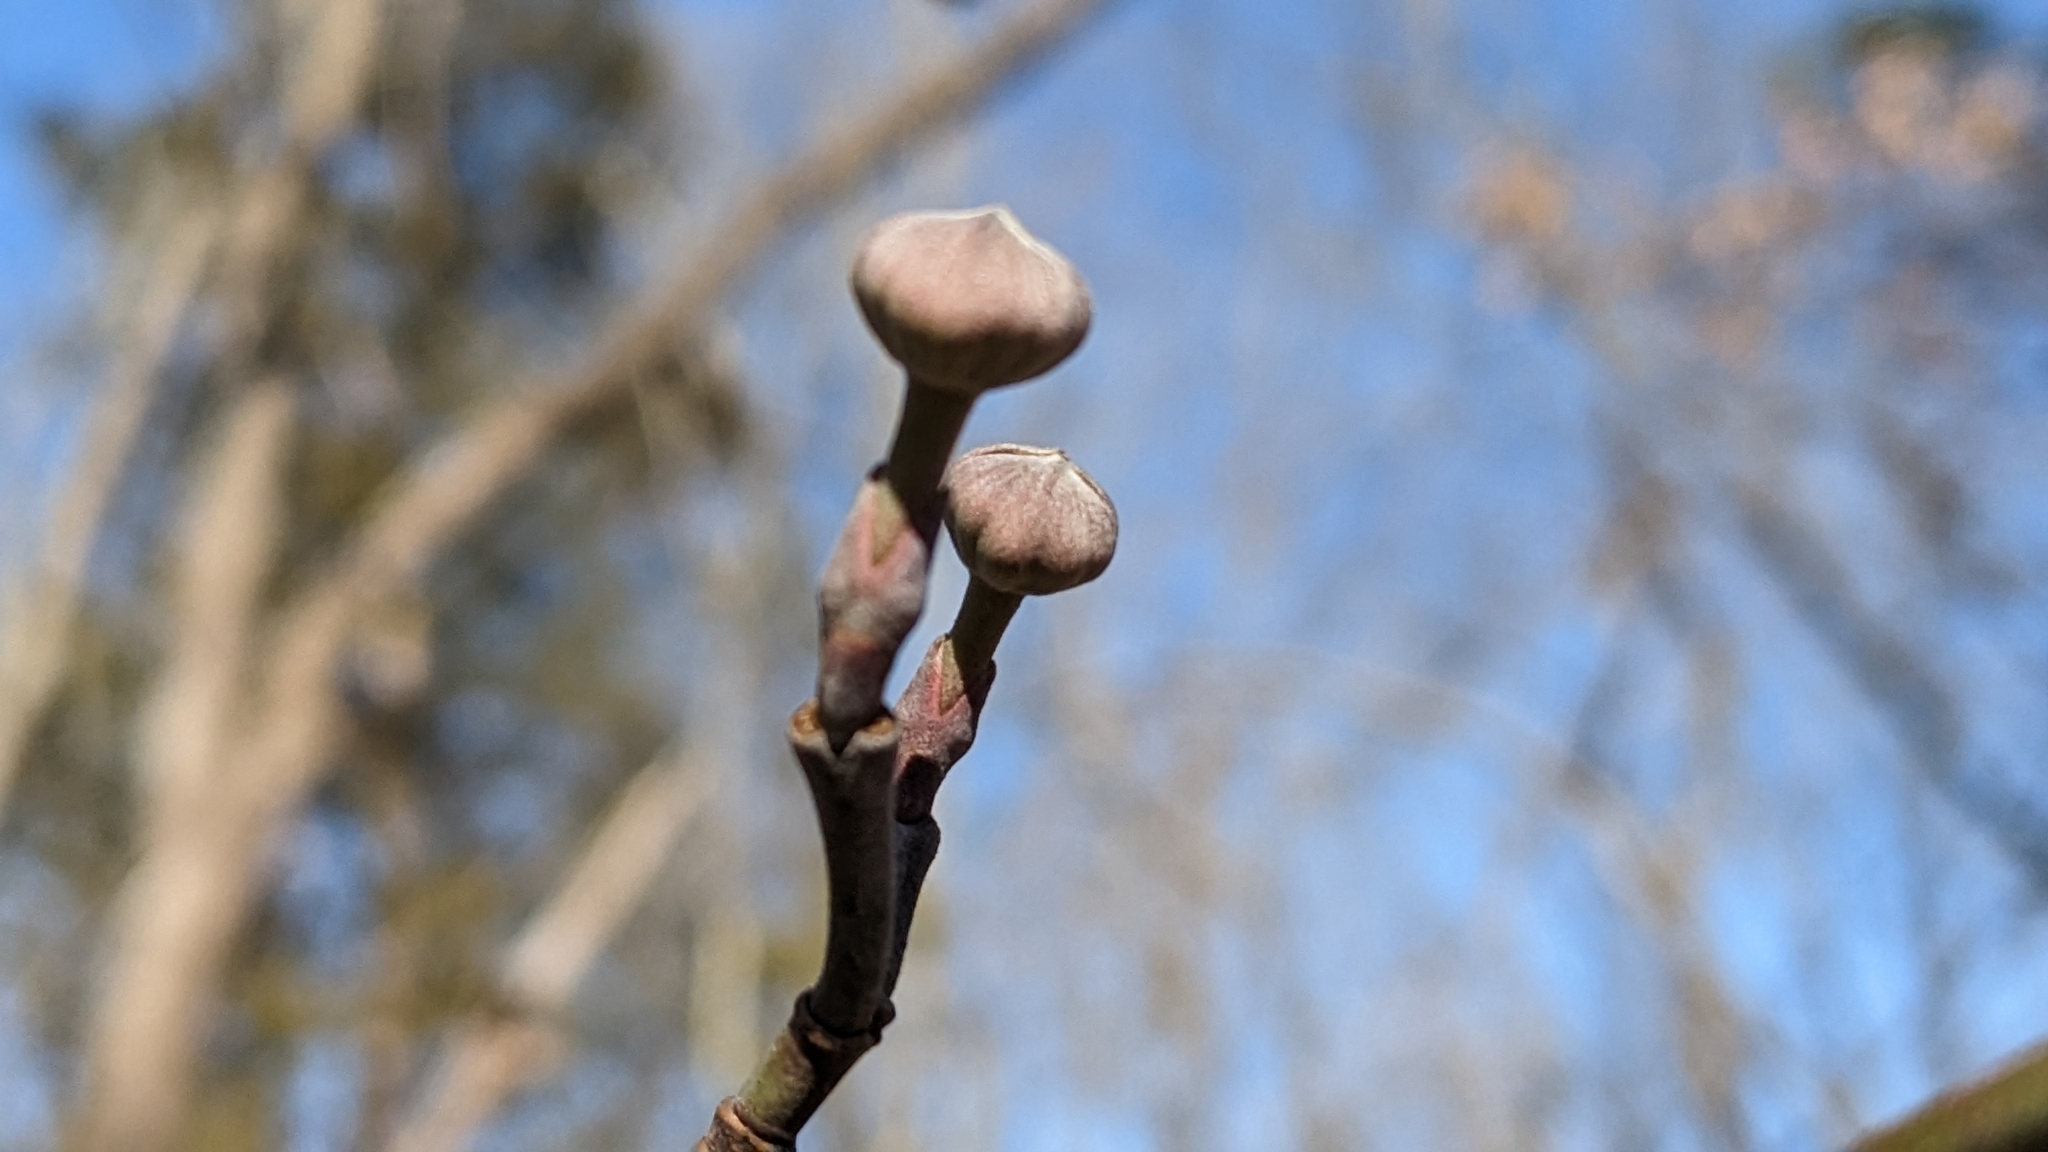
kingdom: Plantae
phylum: Tracheophyta
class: Magnoliopsida
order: Cornales
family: Cornaceae
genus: Cornus
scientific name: Cornus florida
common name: Flowering dogwood
